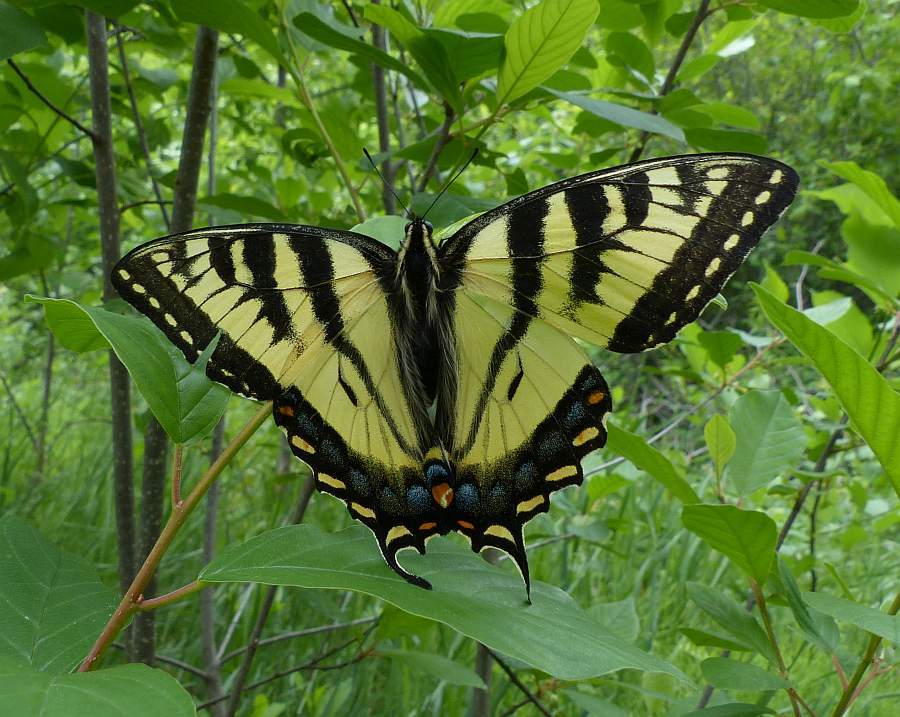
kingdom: Animalia
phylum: Arthropoda
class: Insecta
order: Lepidoptera
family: Papilionidae
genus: Papilio
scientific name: Papilio canadensis
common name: Canadian tiger swallowtail
